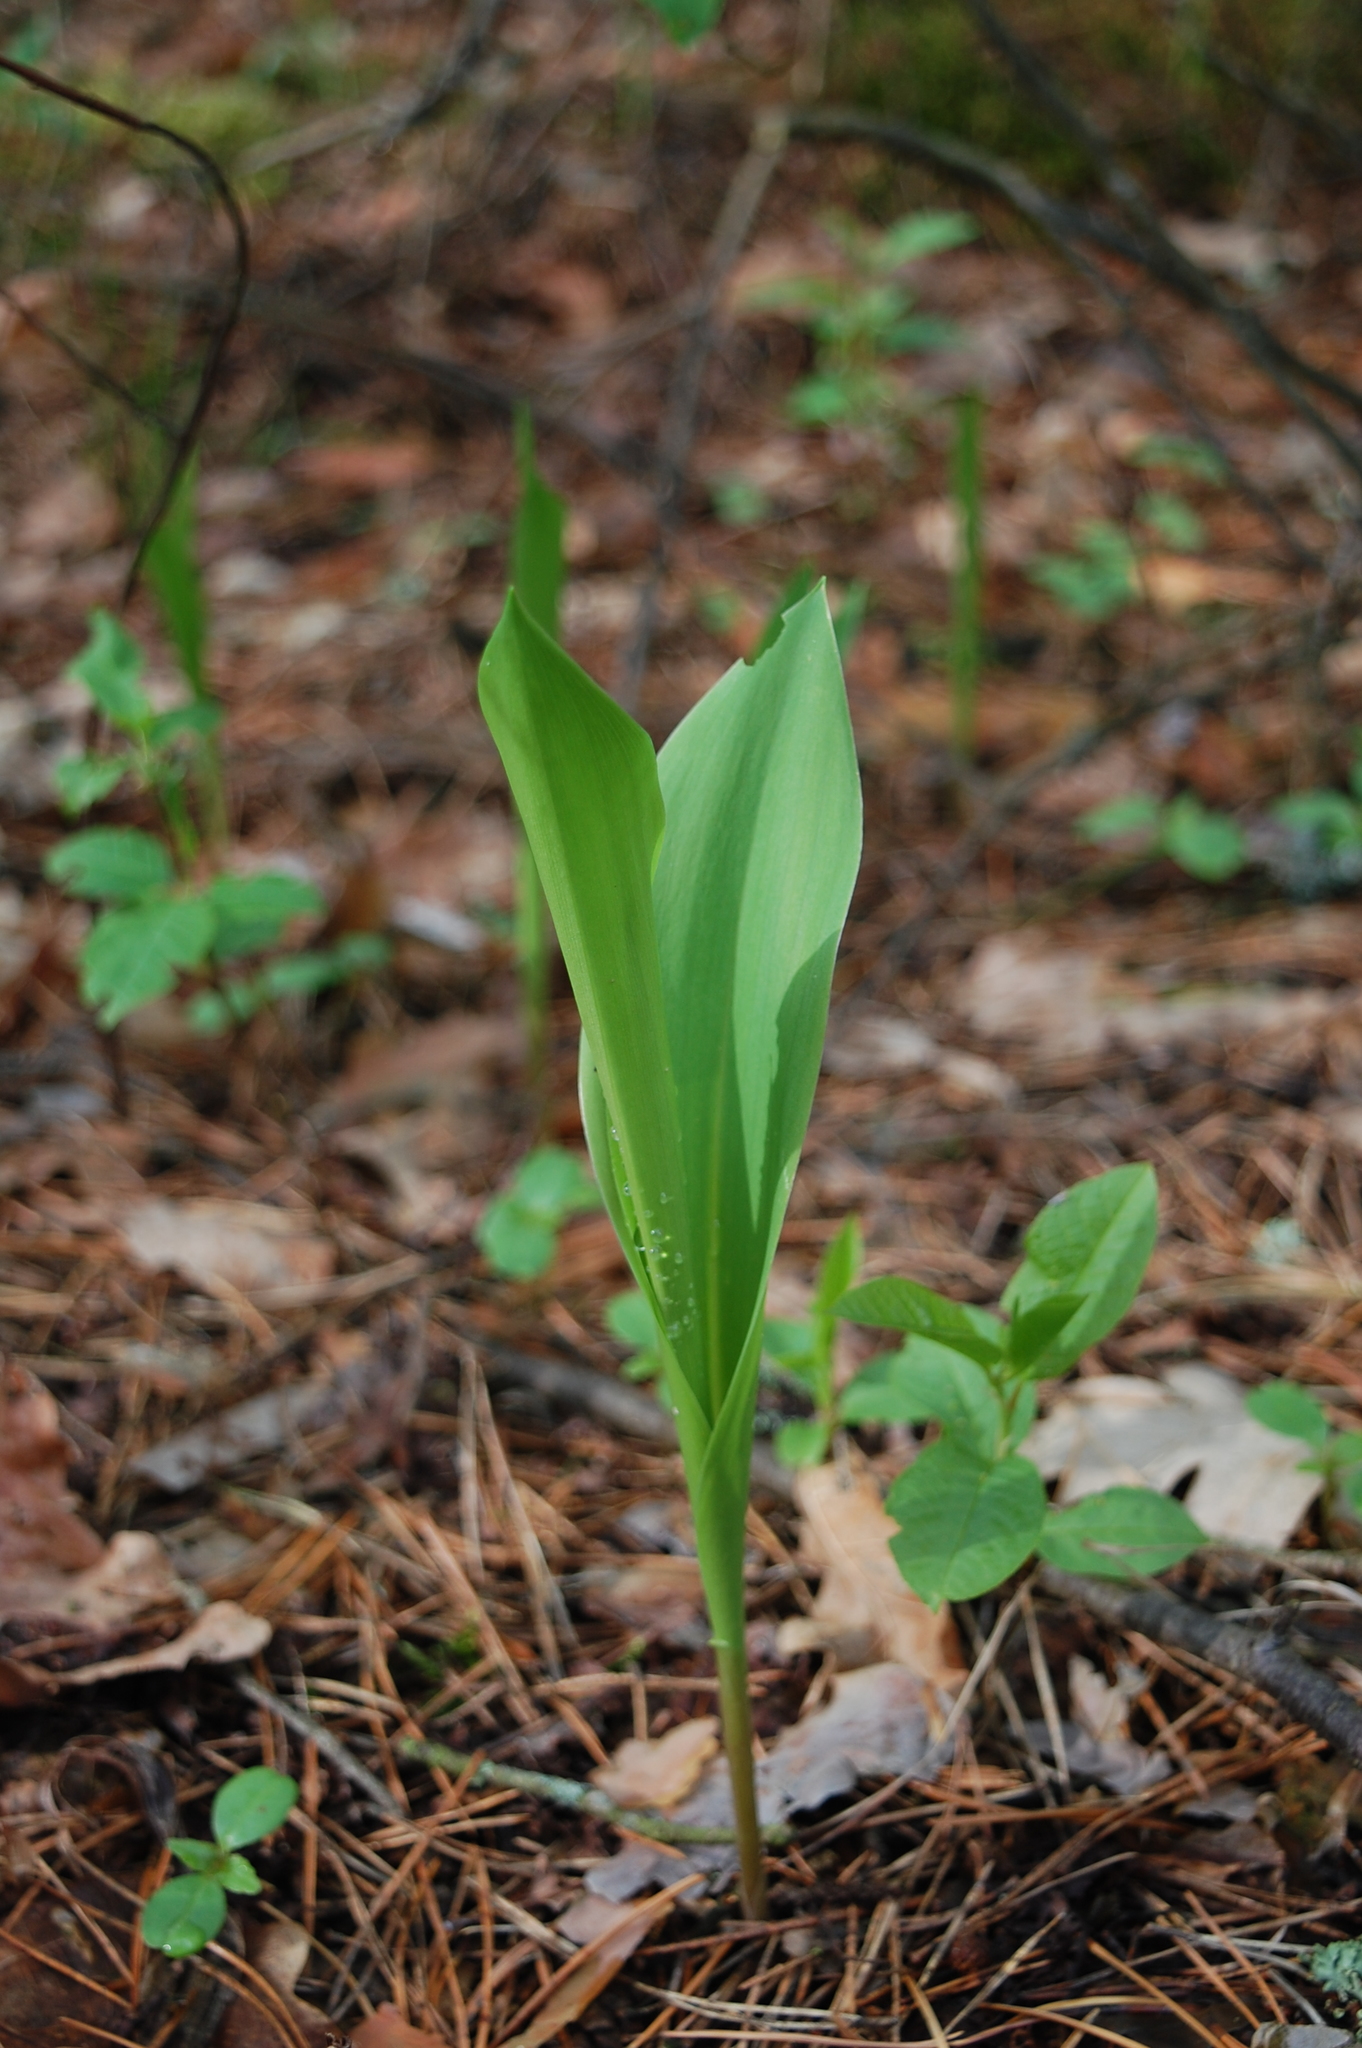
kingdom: Plantae
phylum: Tracheophyta
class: Liliopsida
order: Asparagales
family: Asparagaceae
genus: Convallaria
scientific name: Convallaria majalis
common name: Lily-of-the-valley
